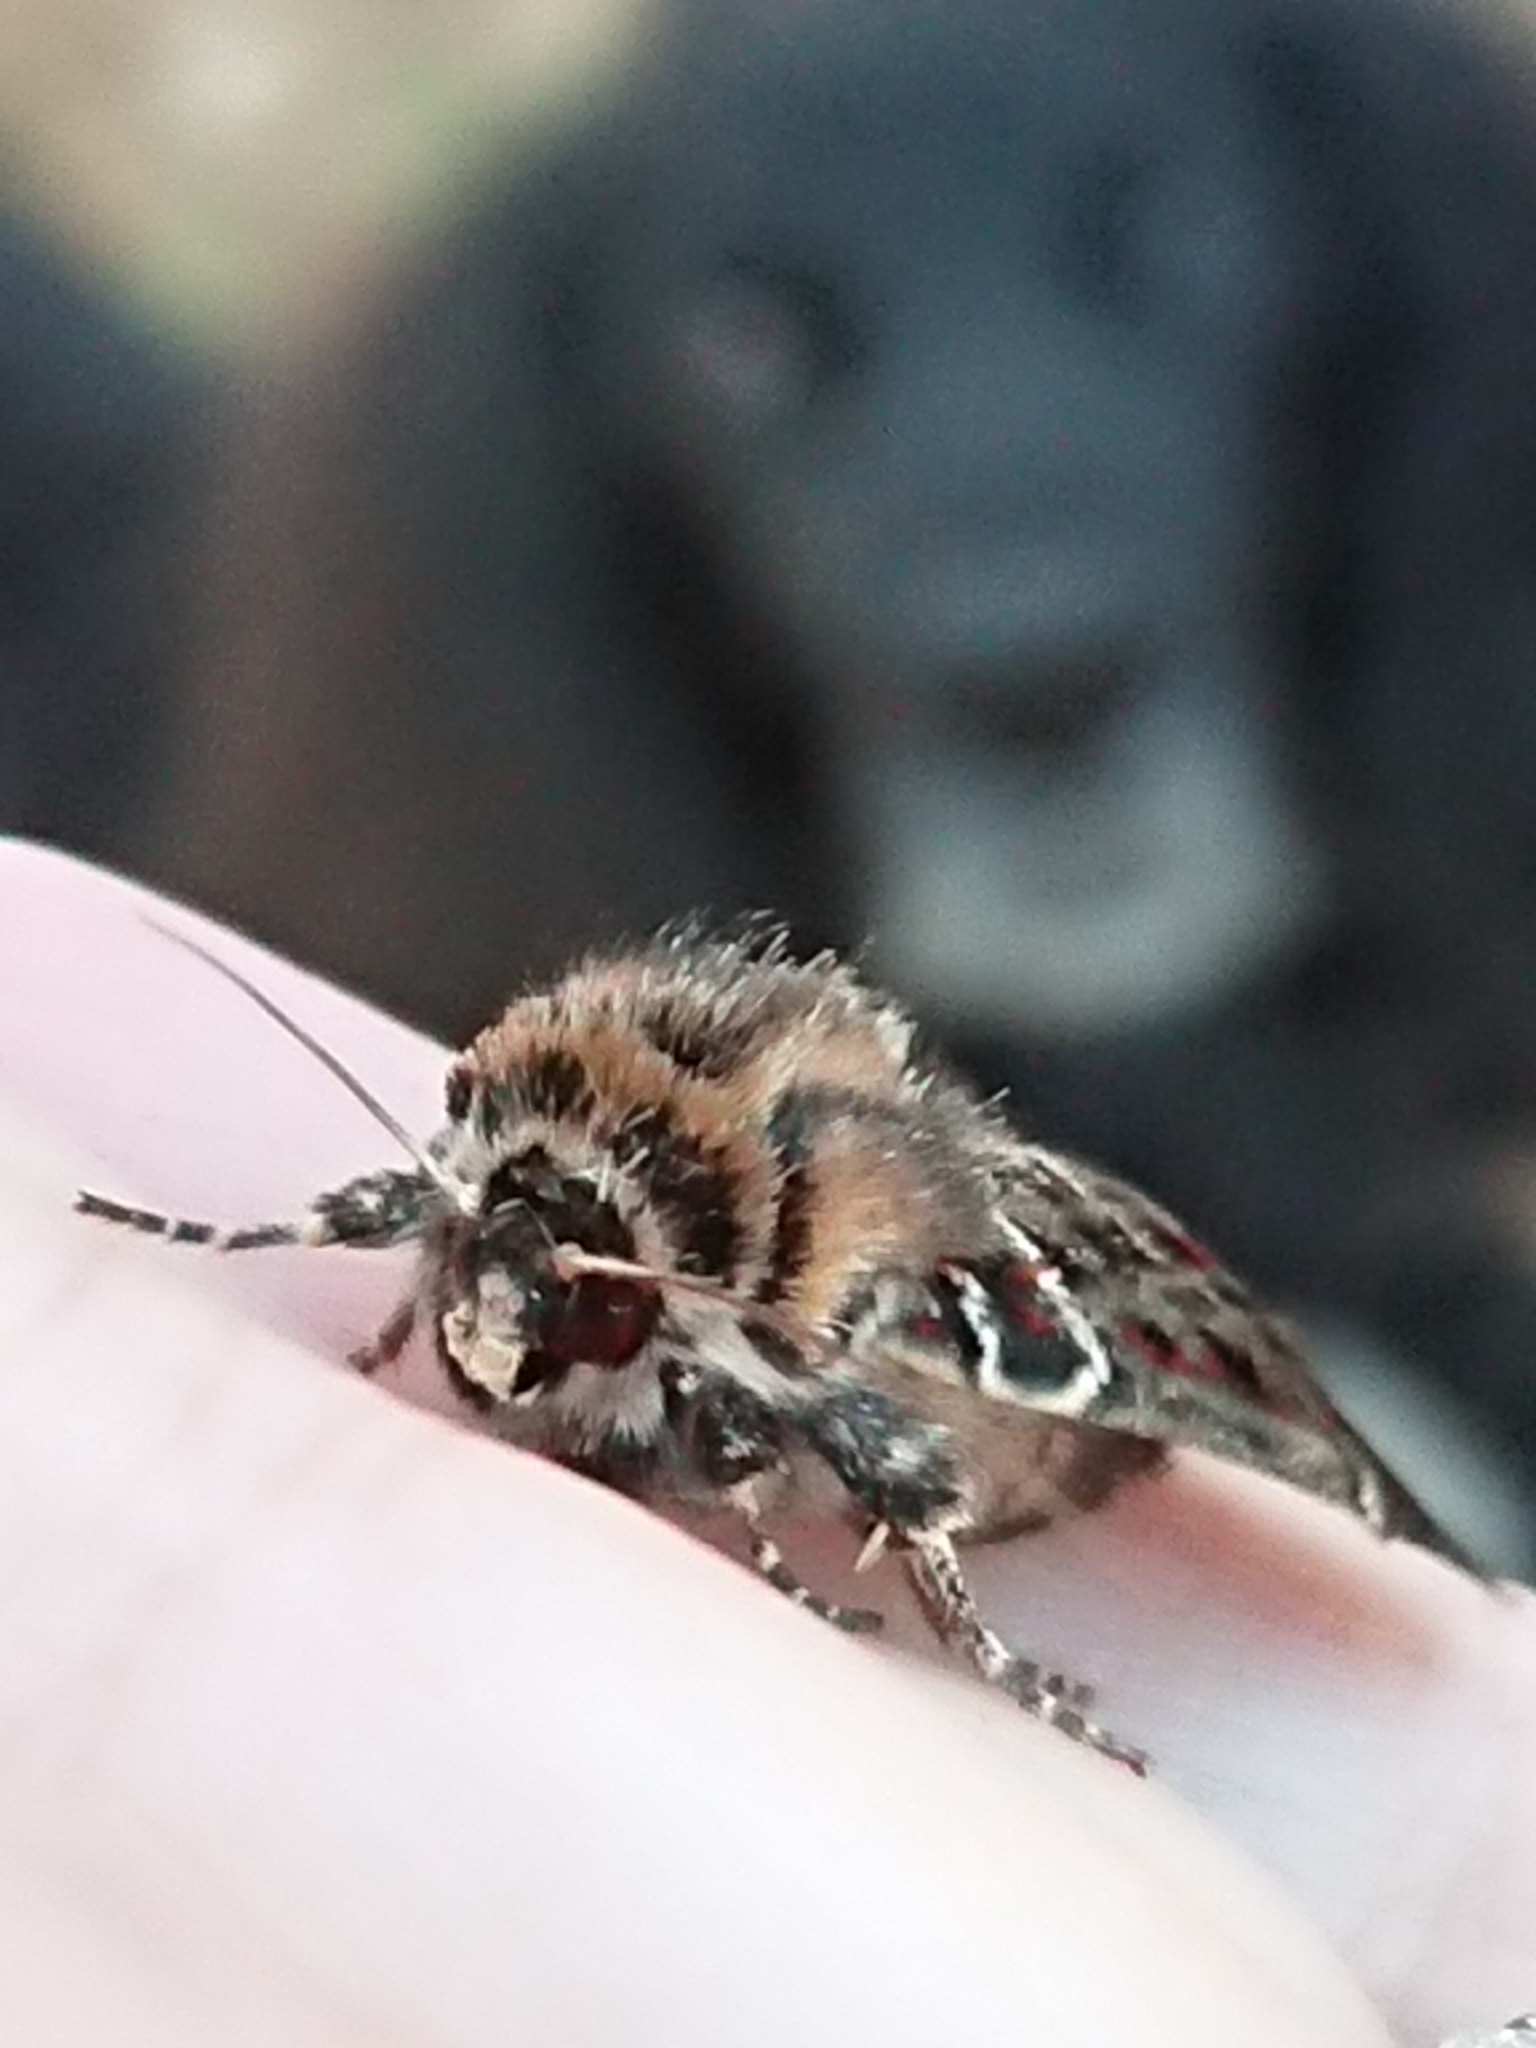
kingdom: Animalia
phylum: Arthropoda
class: Insecta
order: Lepidoptera
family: Noctuidae
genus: Proteuxoa
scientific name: Proteuxoa sanguinipuncta
